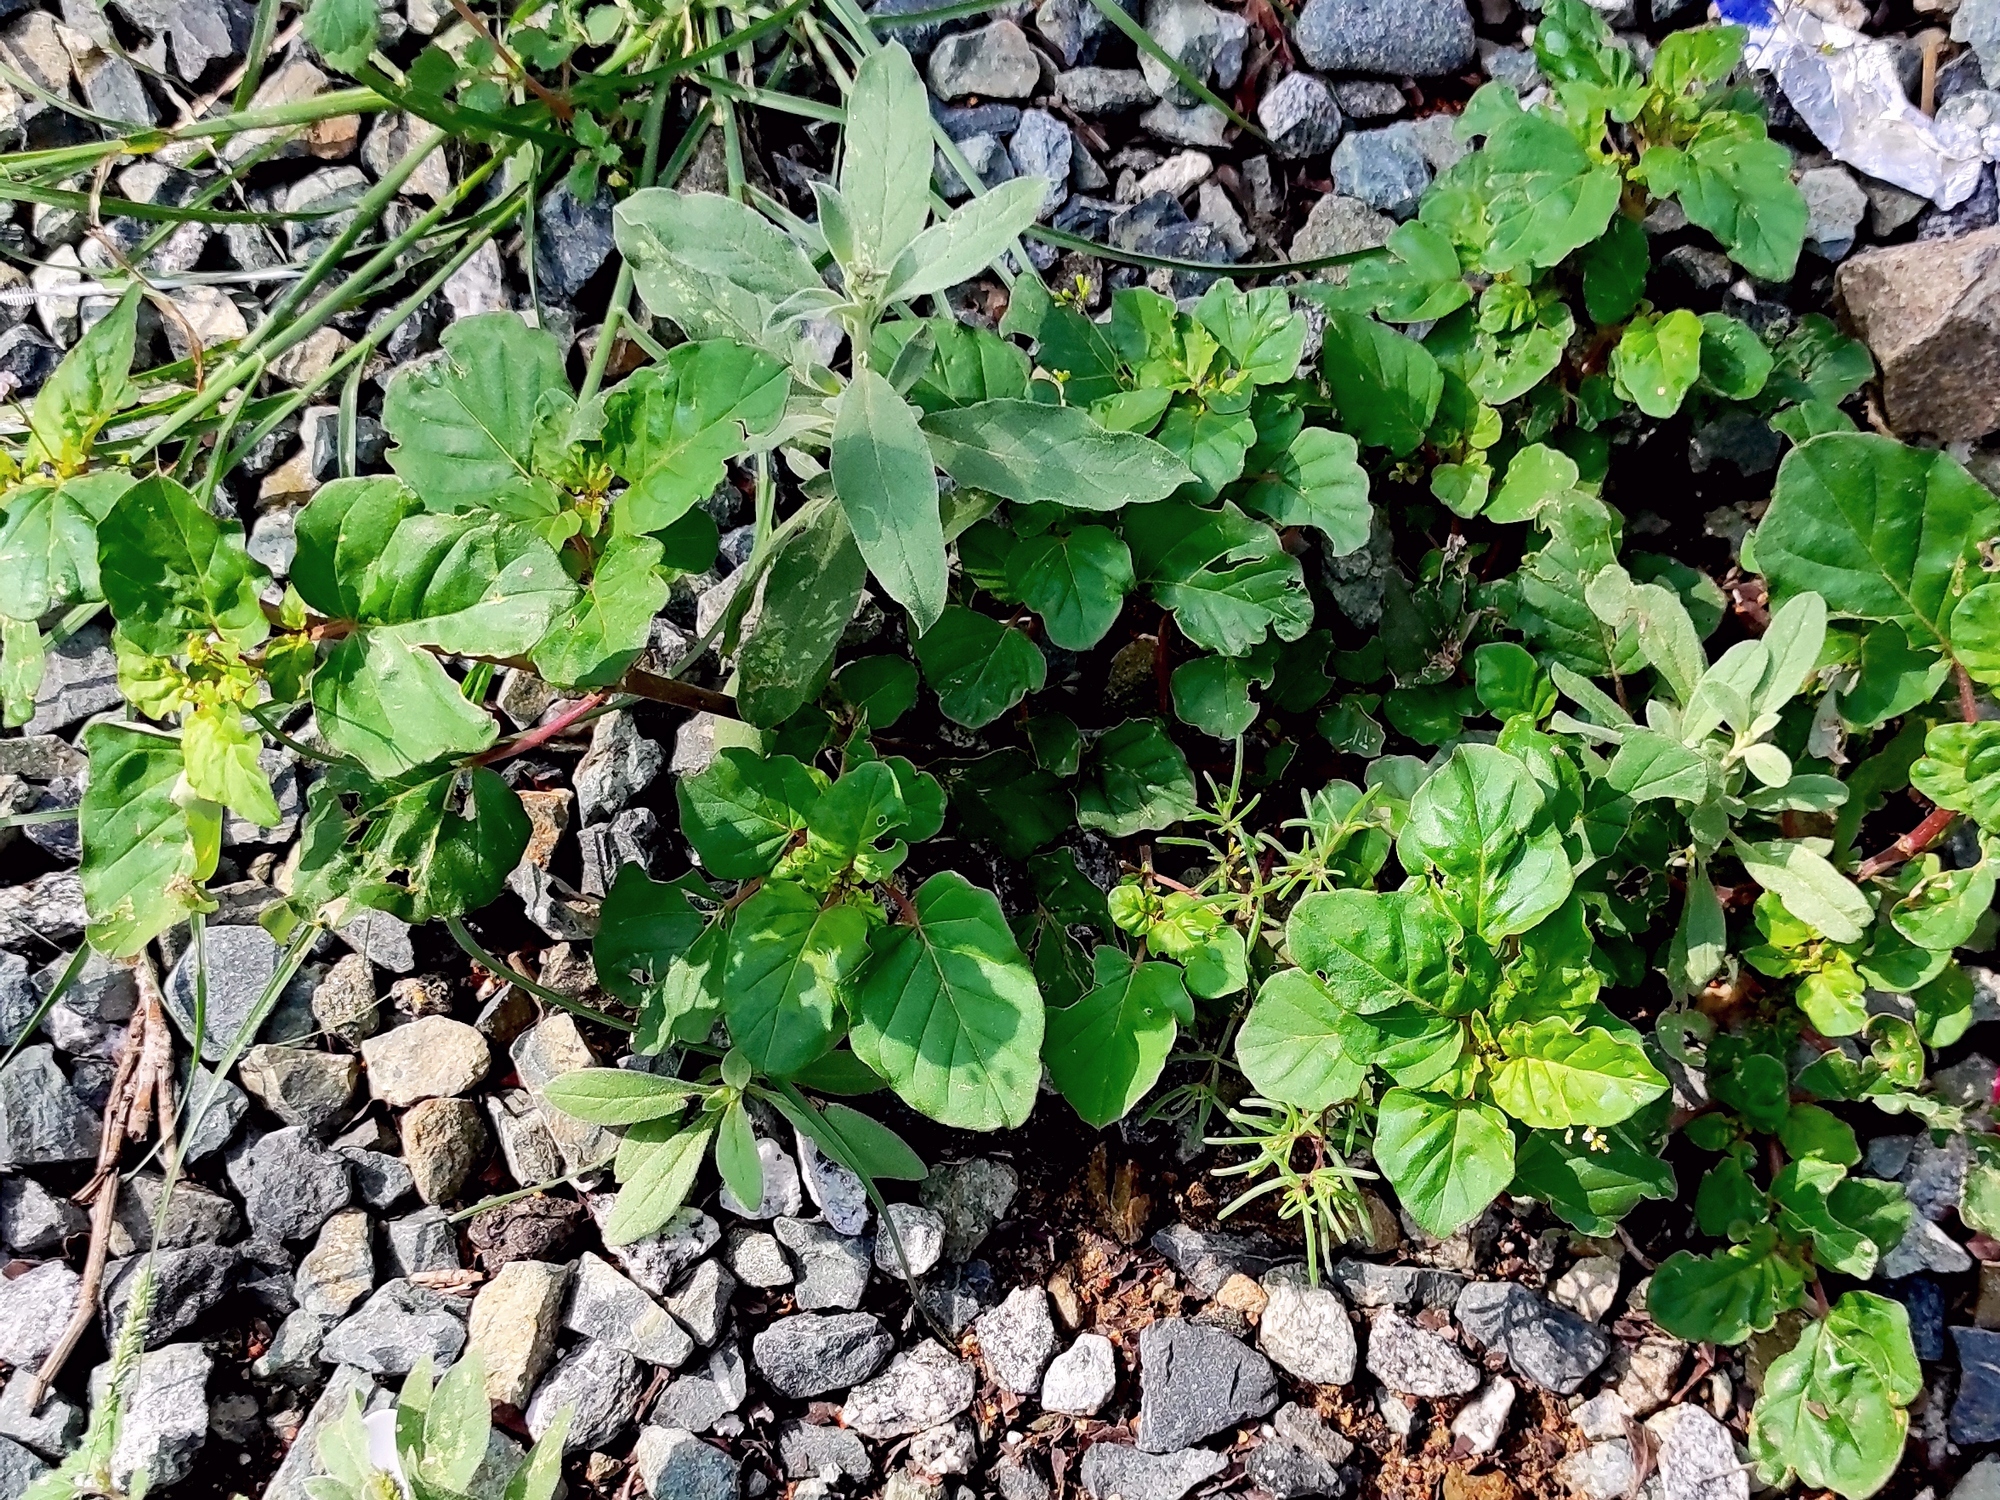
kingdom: Plantae
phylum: Tracheophyta
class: Magnoliopsida
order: Caryophyllales
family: Nyctaginaceae
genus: Boerhavia
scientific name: Boerhavia erecta
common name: Erect spiderling
